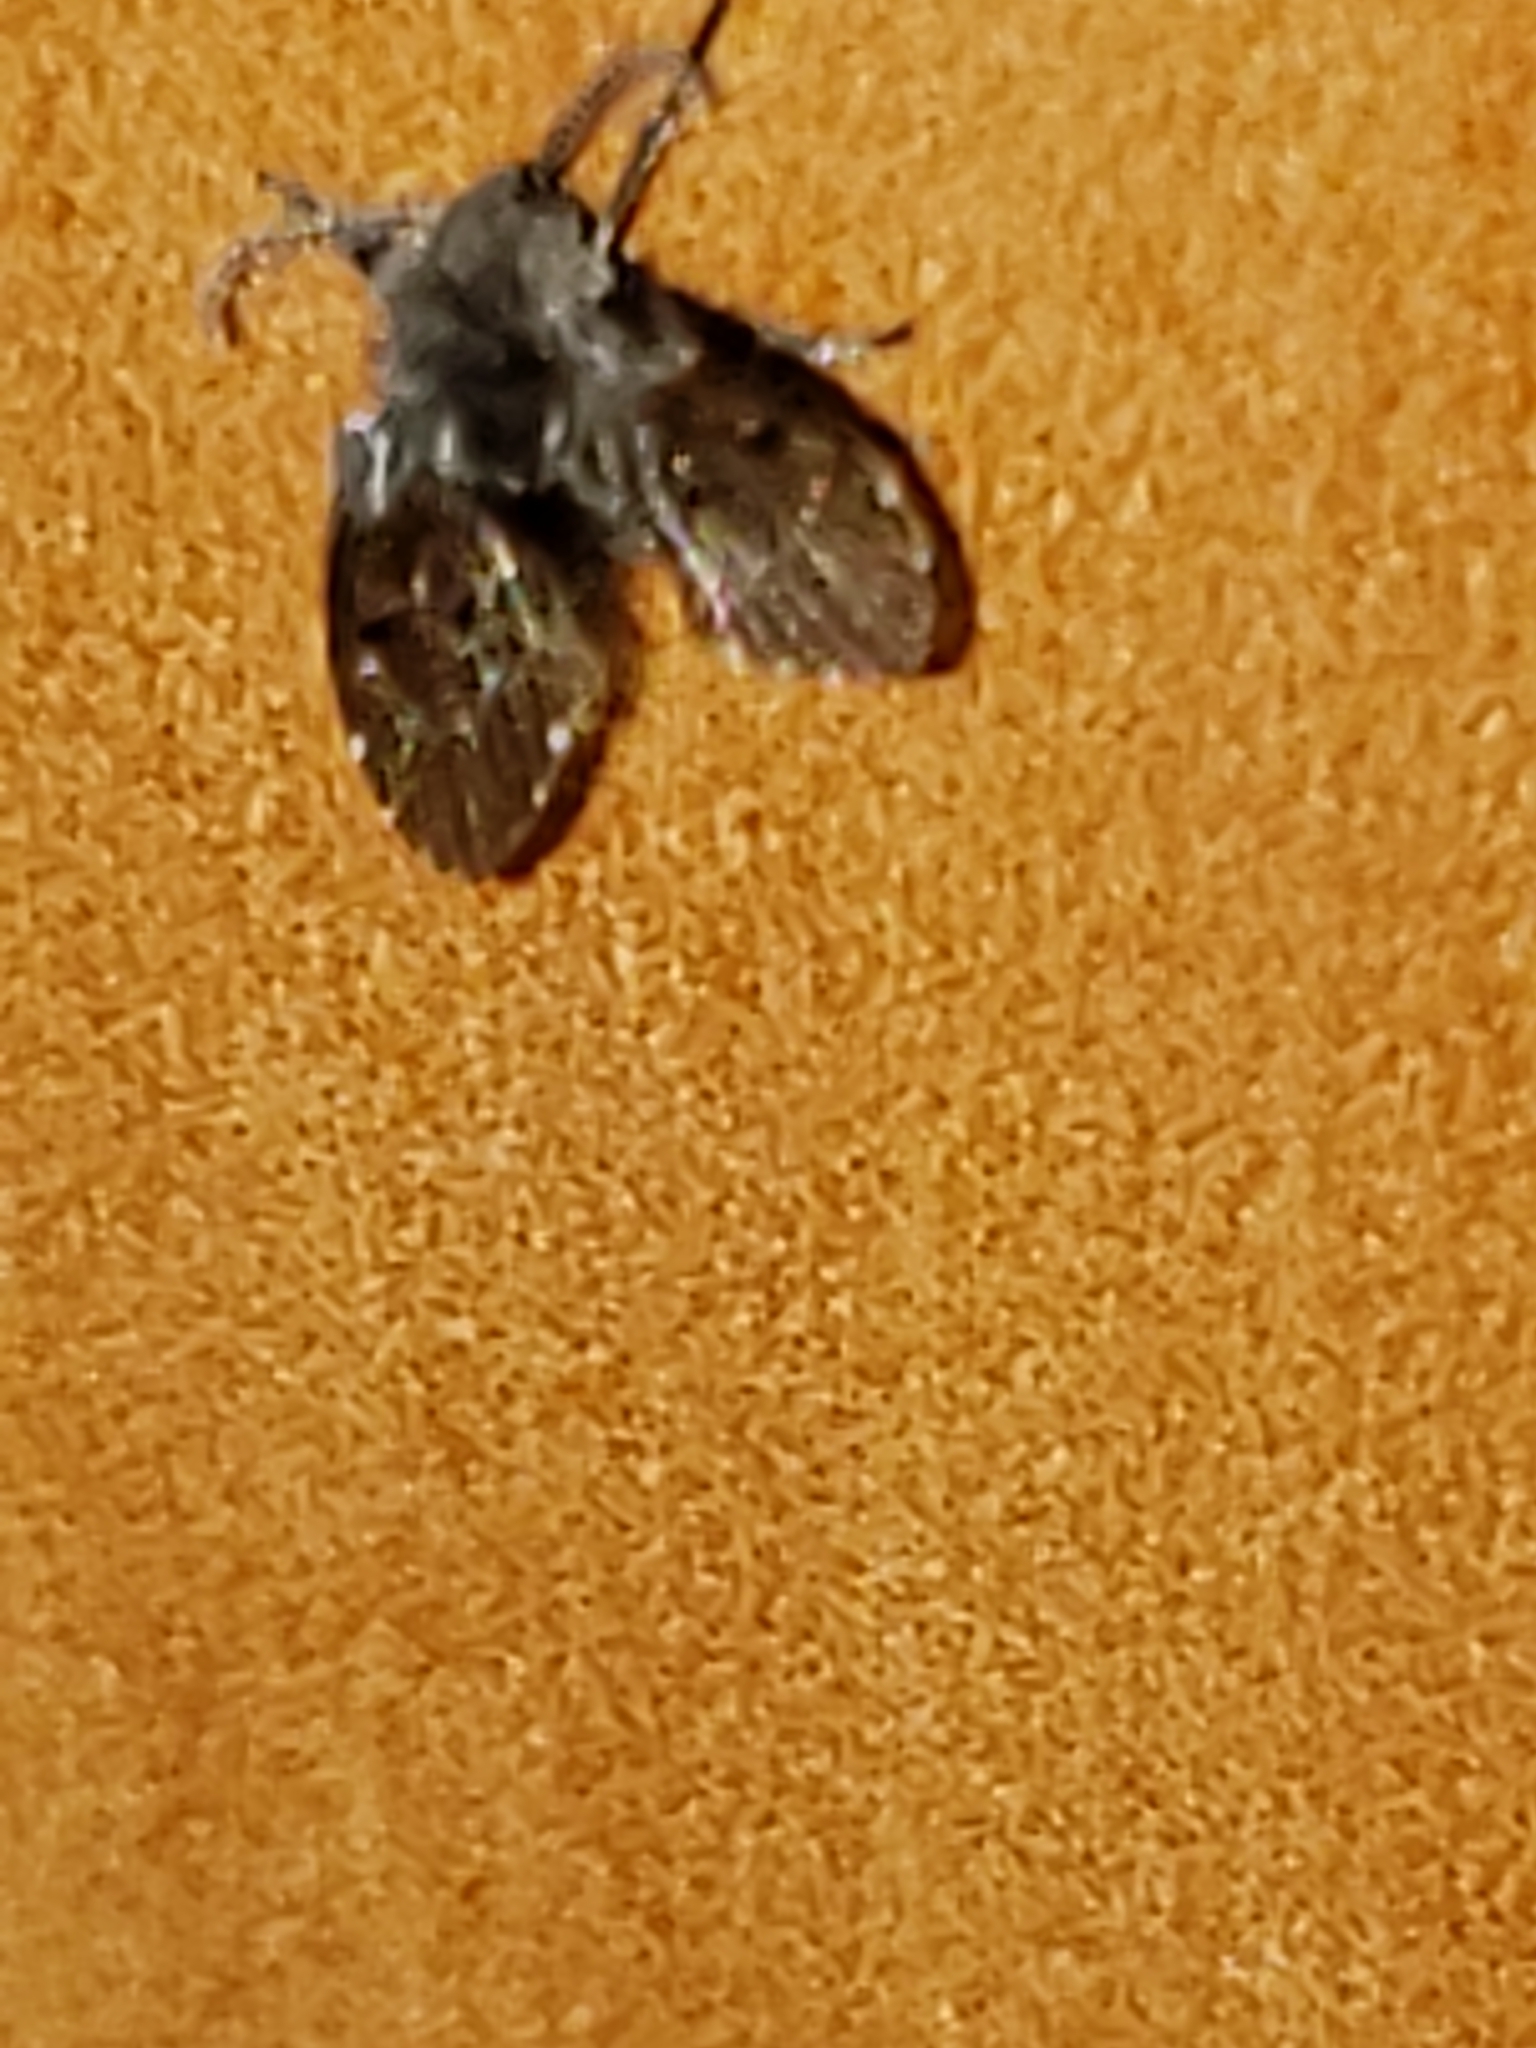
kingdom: Animalia
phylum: Arthropoda
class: Insecta
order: Diptera
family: Psychodidae
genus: Clogmia
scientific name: Clogmia albipunctatus
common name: White-spotted moth fly
